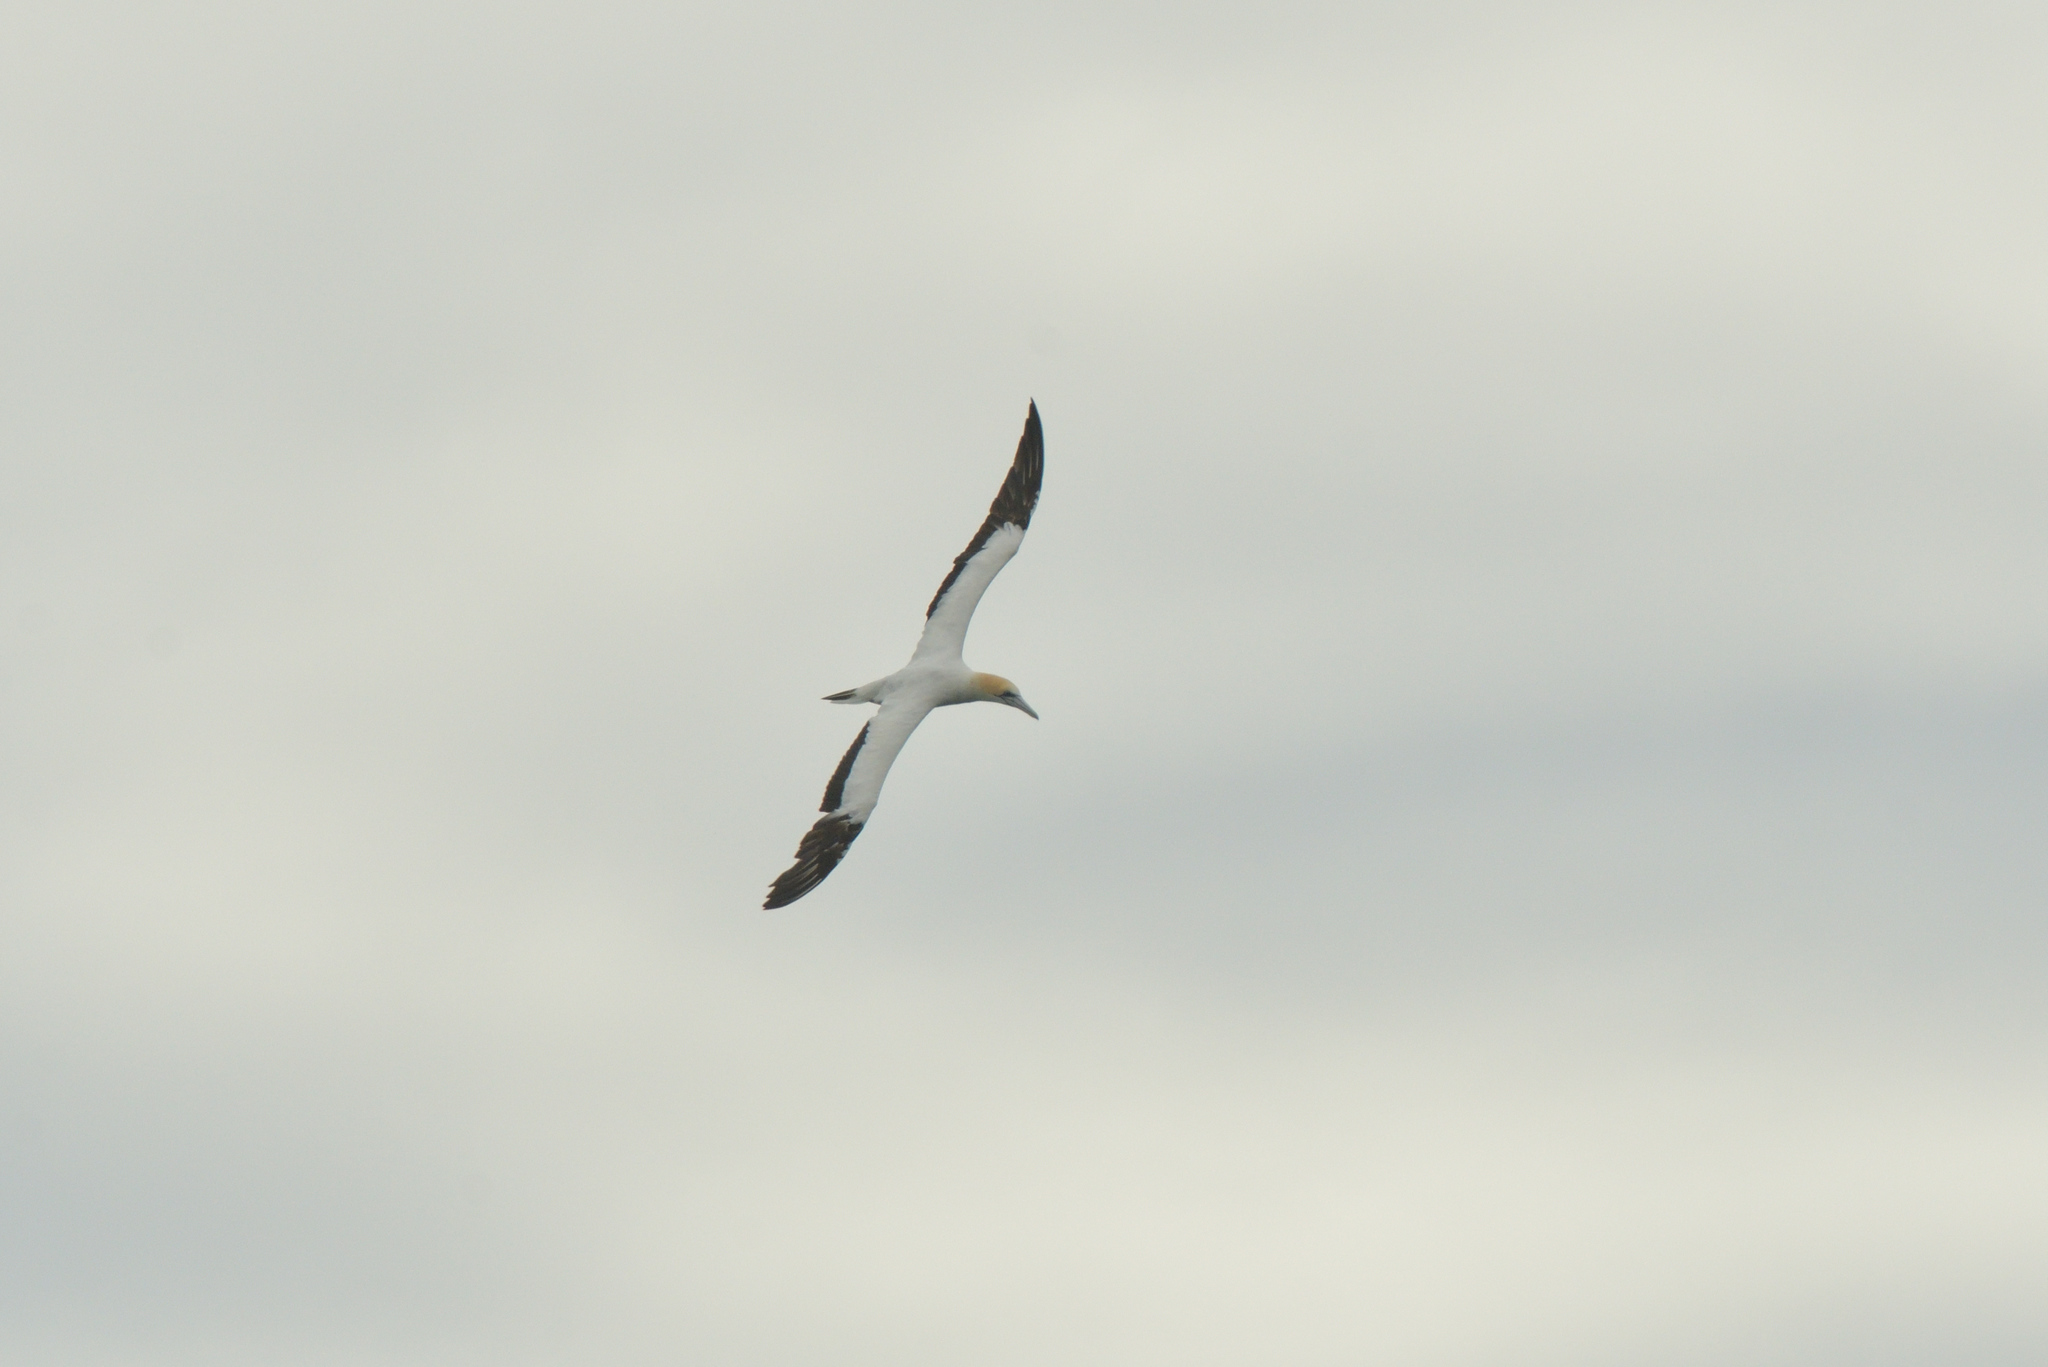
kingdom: Animalia
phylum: Chordata
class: Aves
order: Suliformes
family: Sulidae
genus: Morus
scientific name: Morus serrator
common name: Australasian gannet
